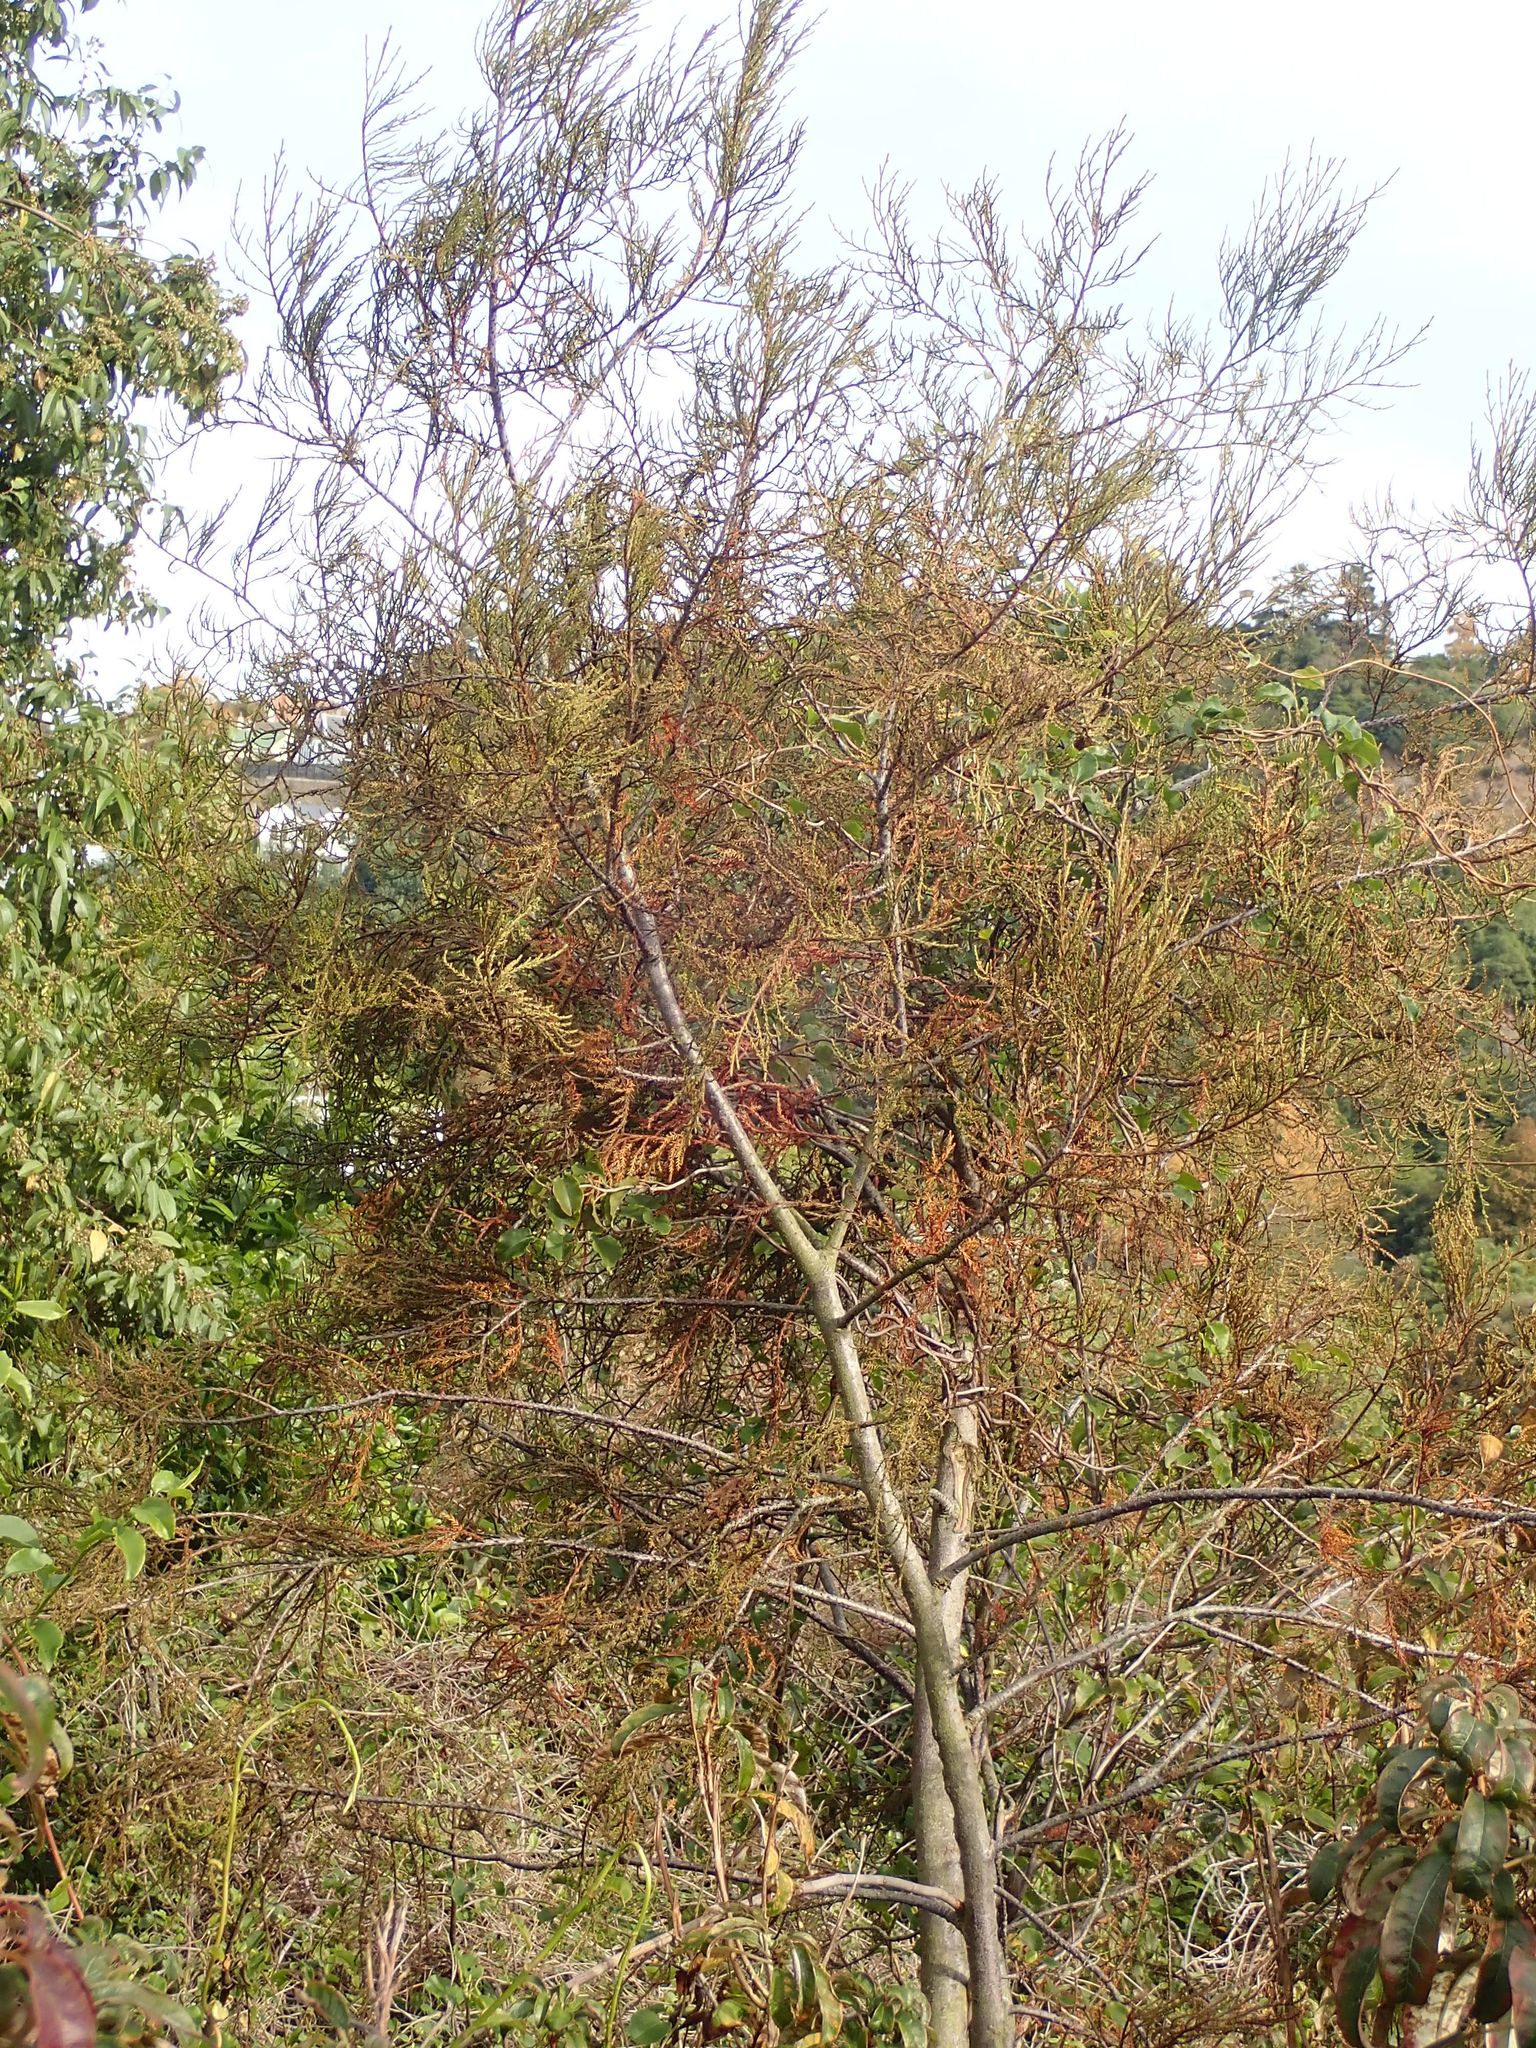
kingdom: Plantae
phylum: Tracheophyta
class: Pinopsida
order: Pinales
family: Podocarpaceae
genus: Dacrycarpus
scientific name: Dacrycarpus dacrydioides
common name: White pine
